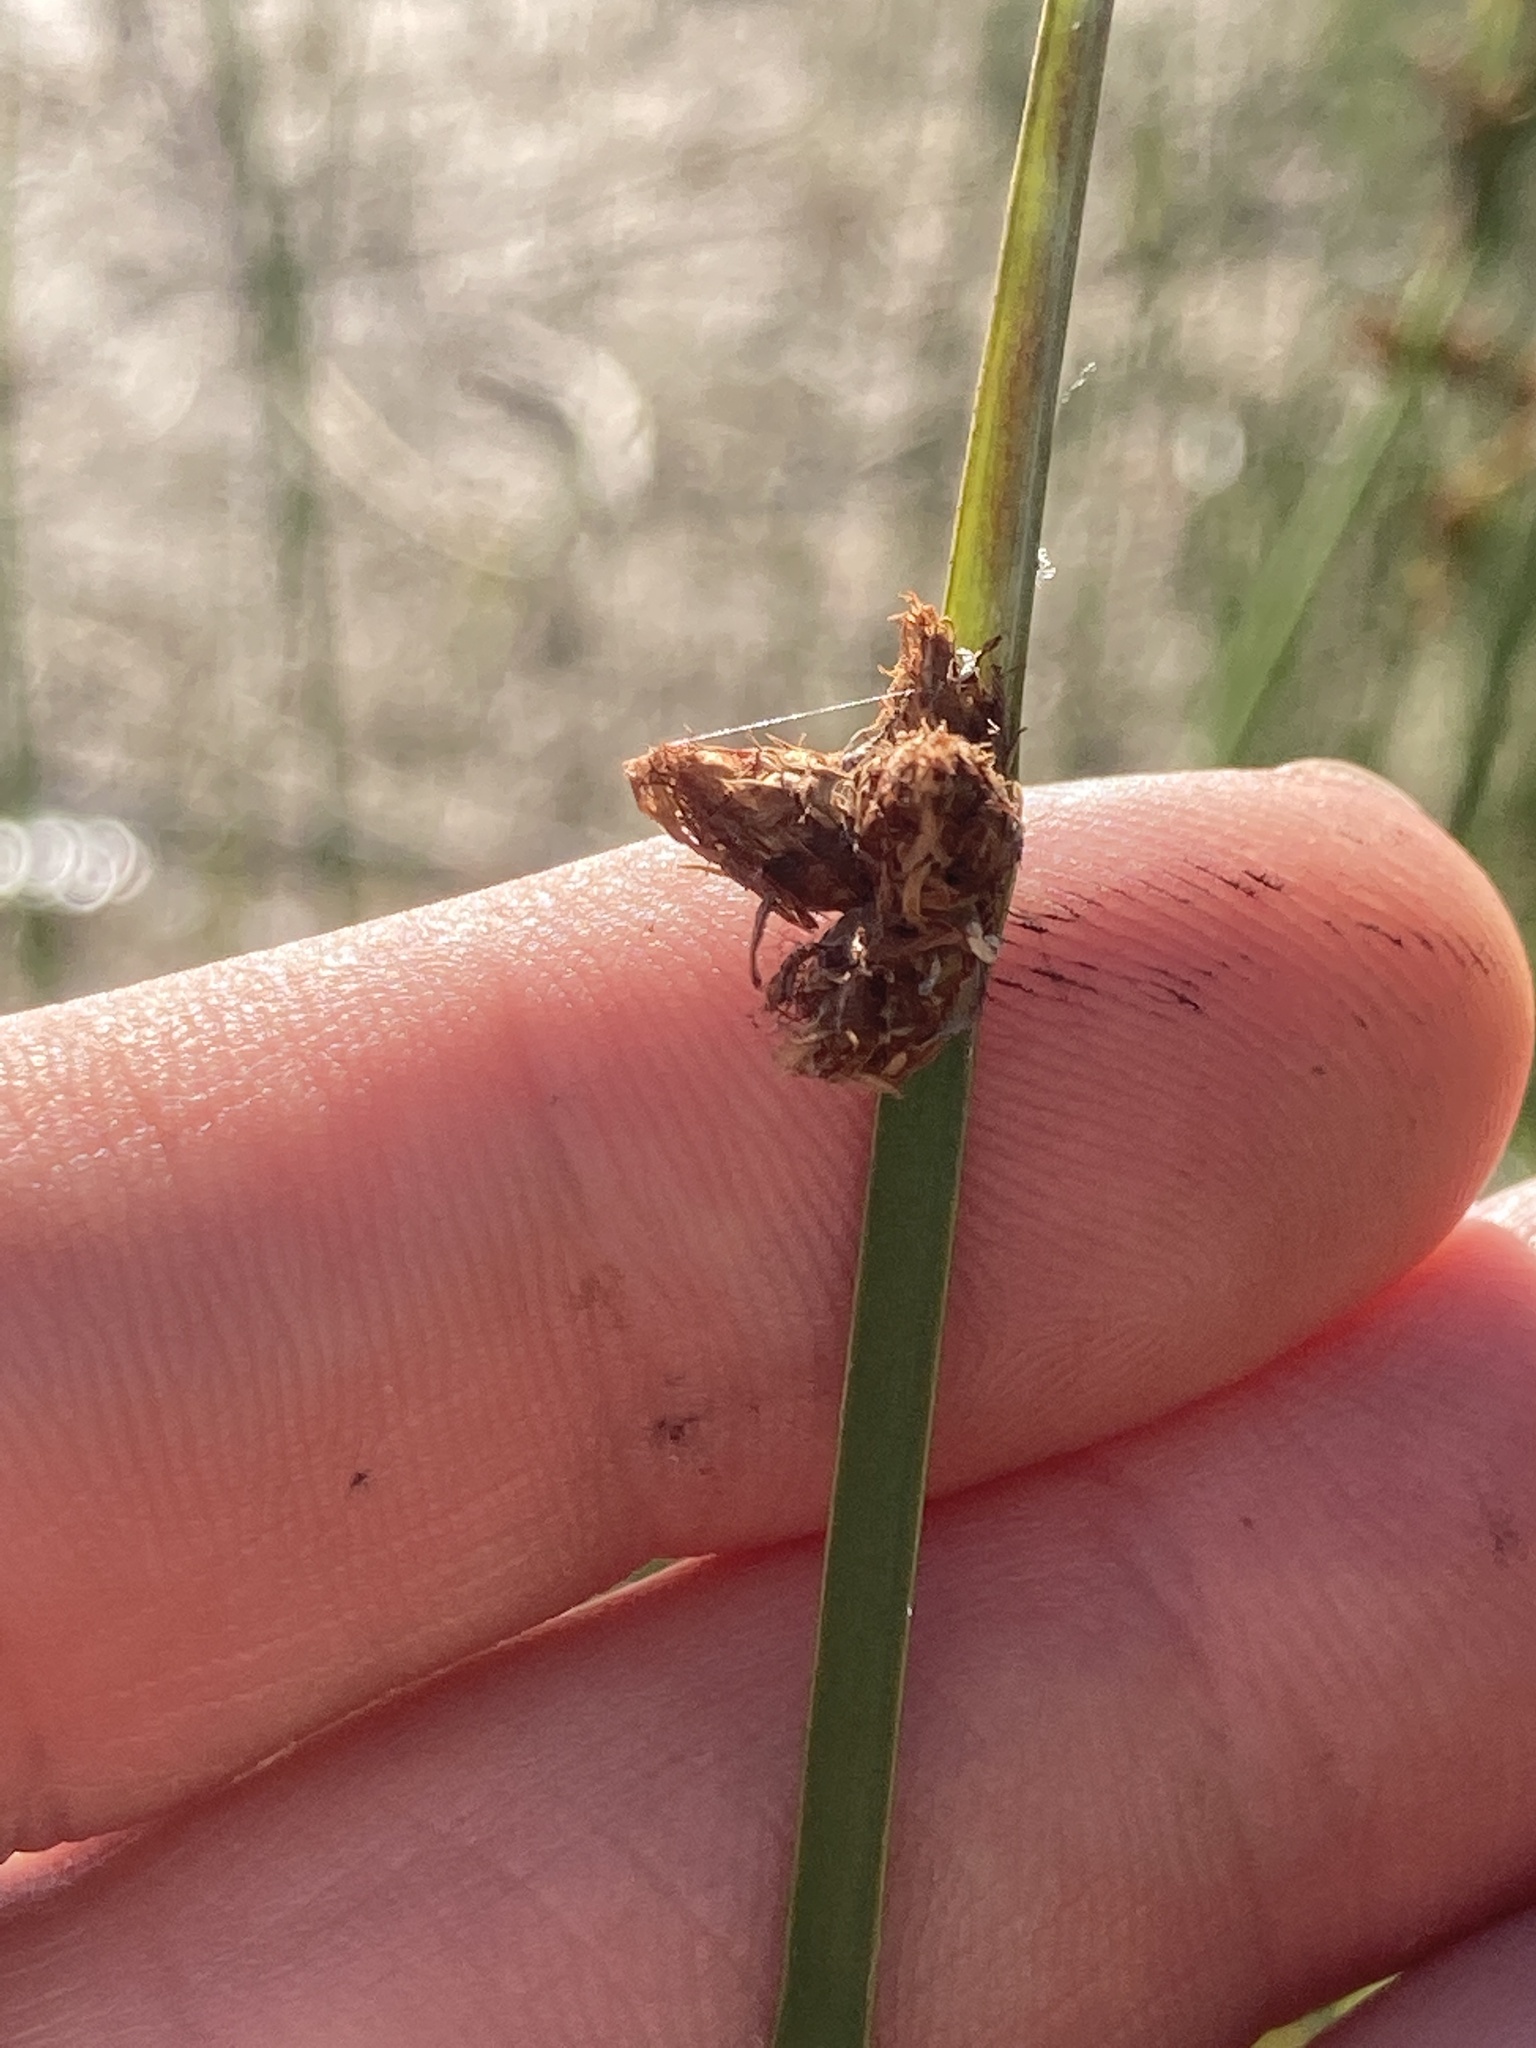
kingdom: Plantae
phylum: Tracheophyta
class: Liliopsida
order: Poales
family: Cyperaceae
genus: Schoenoplectus
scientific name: Schoenoplectus pungens
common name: Sharp club-rush
